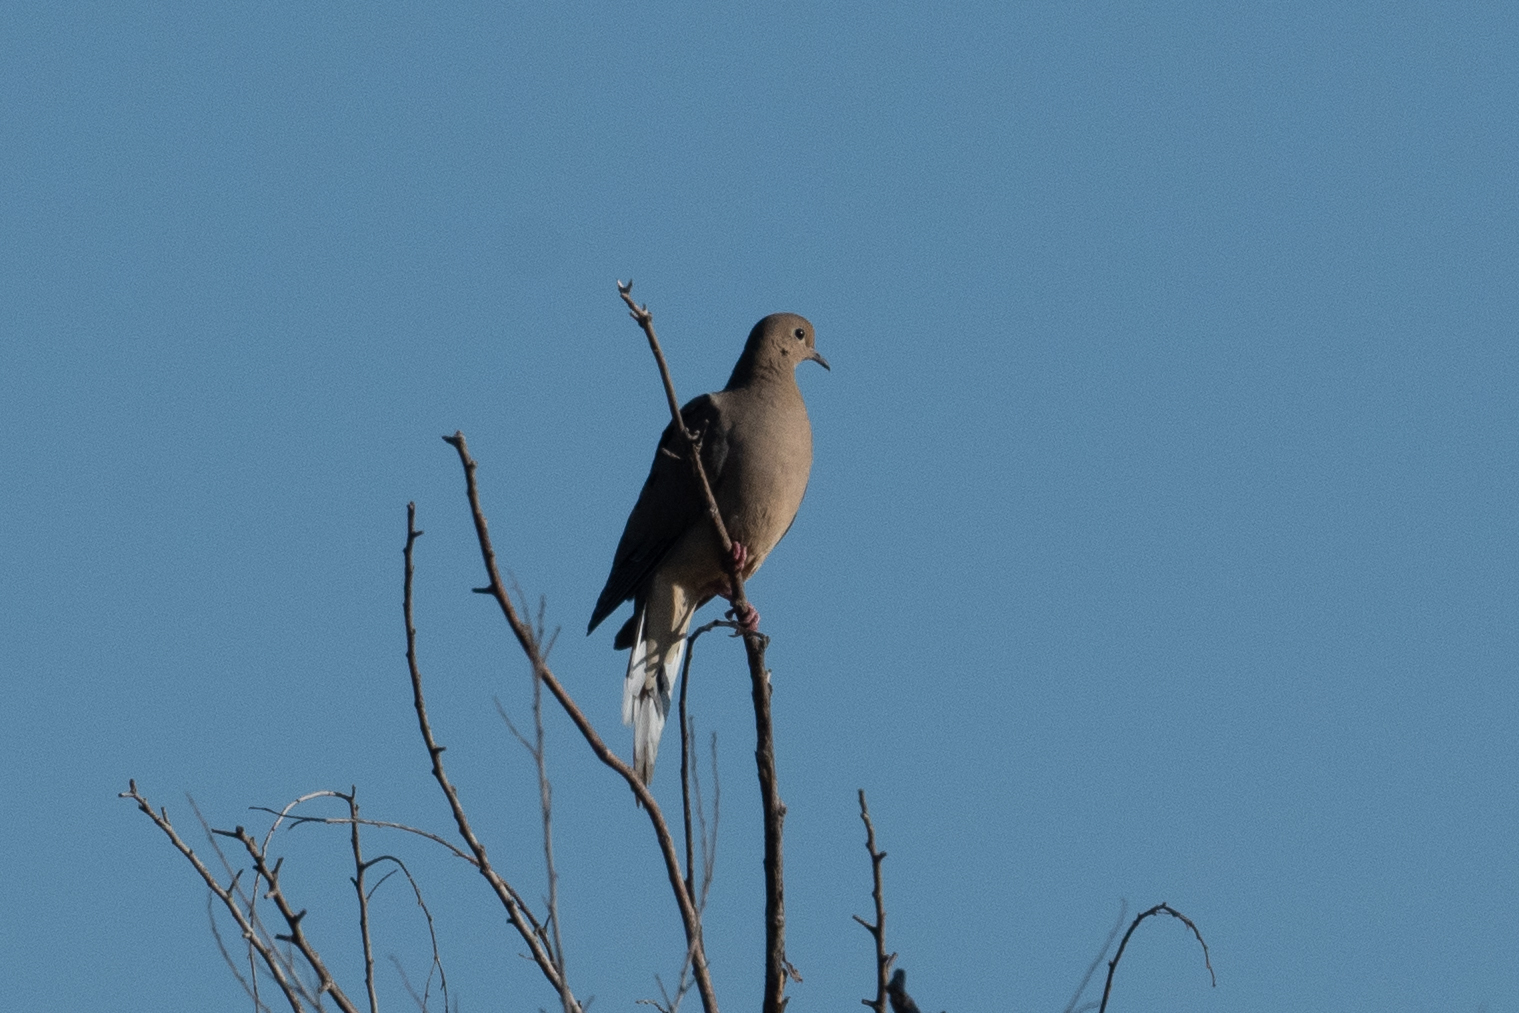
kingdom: Animalia
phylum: Chordata
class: Aves
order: Columbiformes
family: Columbidae
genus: Zenaida
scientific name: Zenaida macroura
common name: Mourning dove
